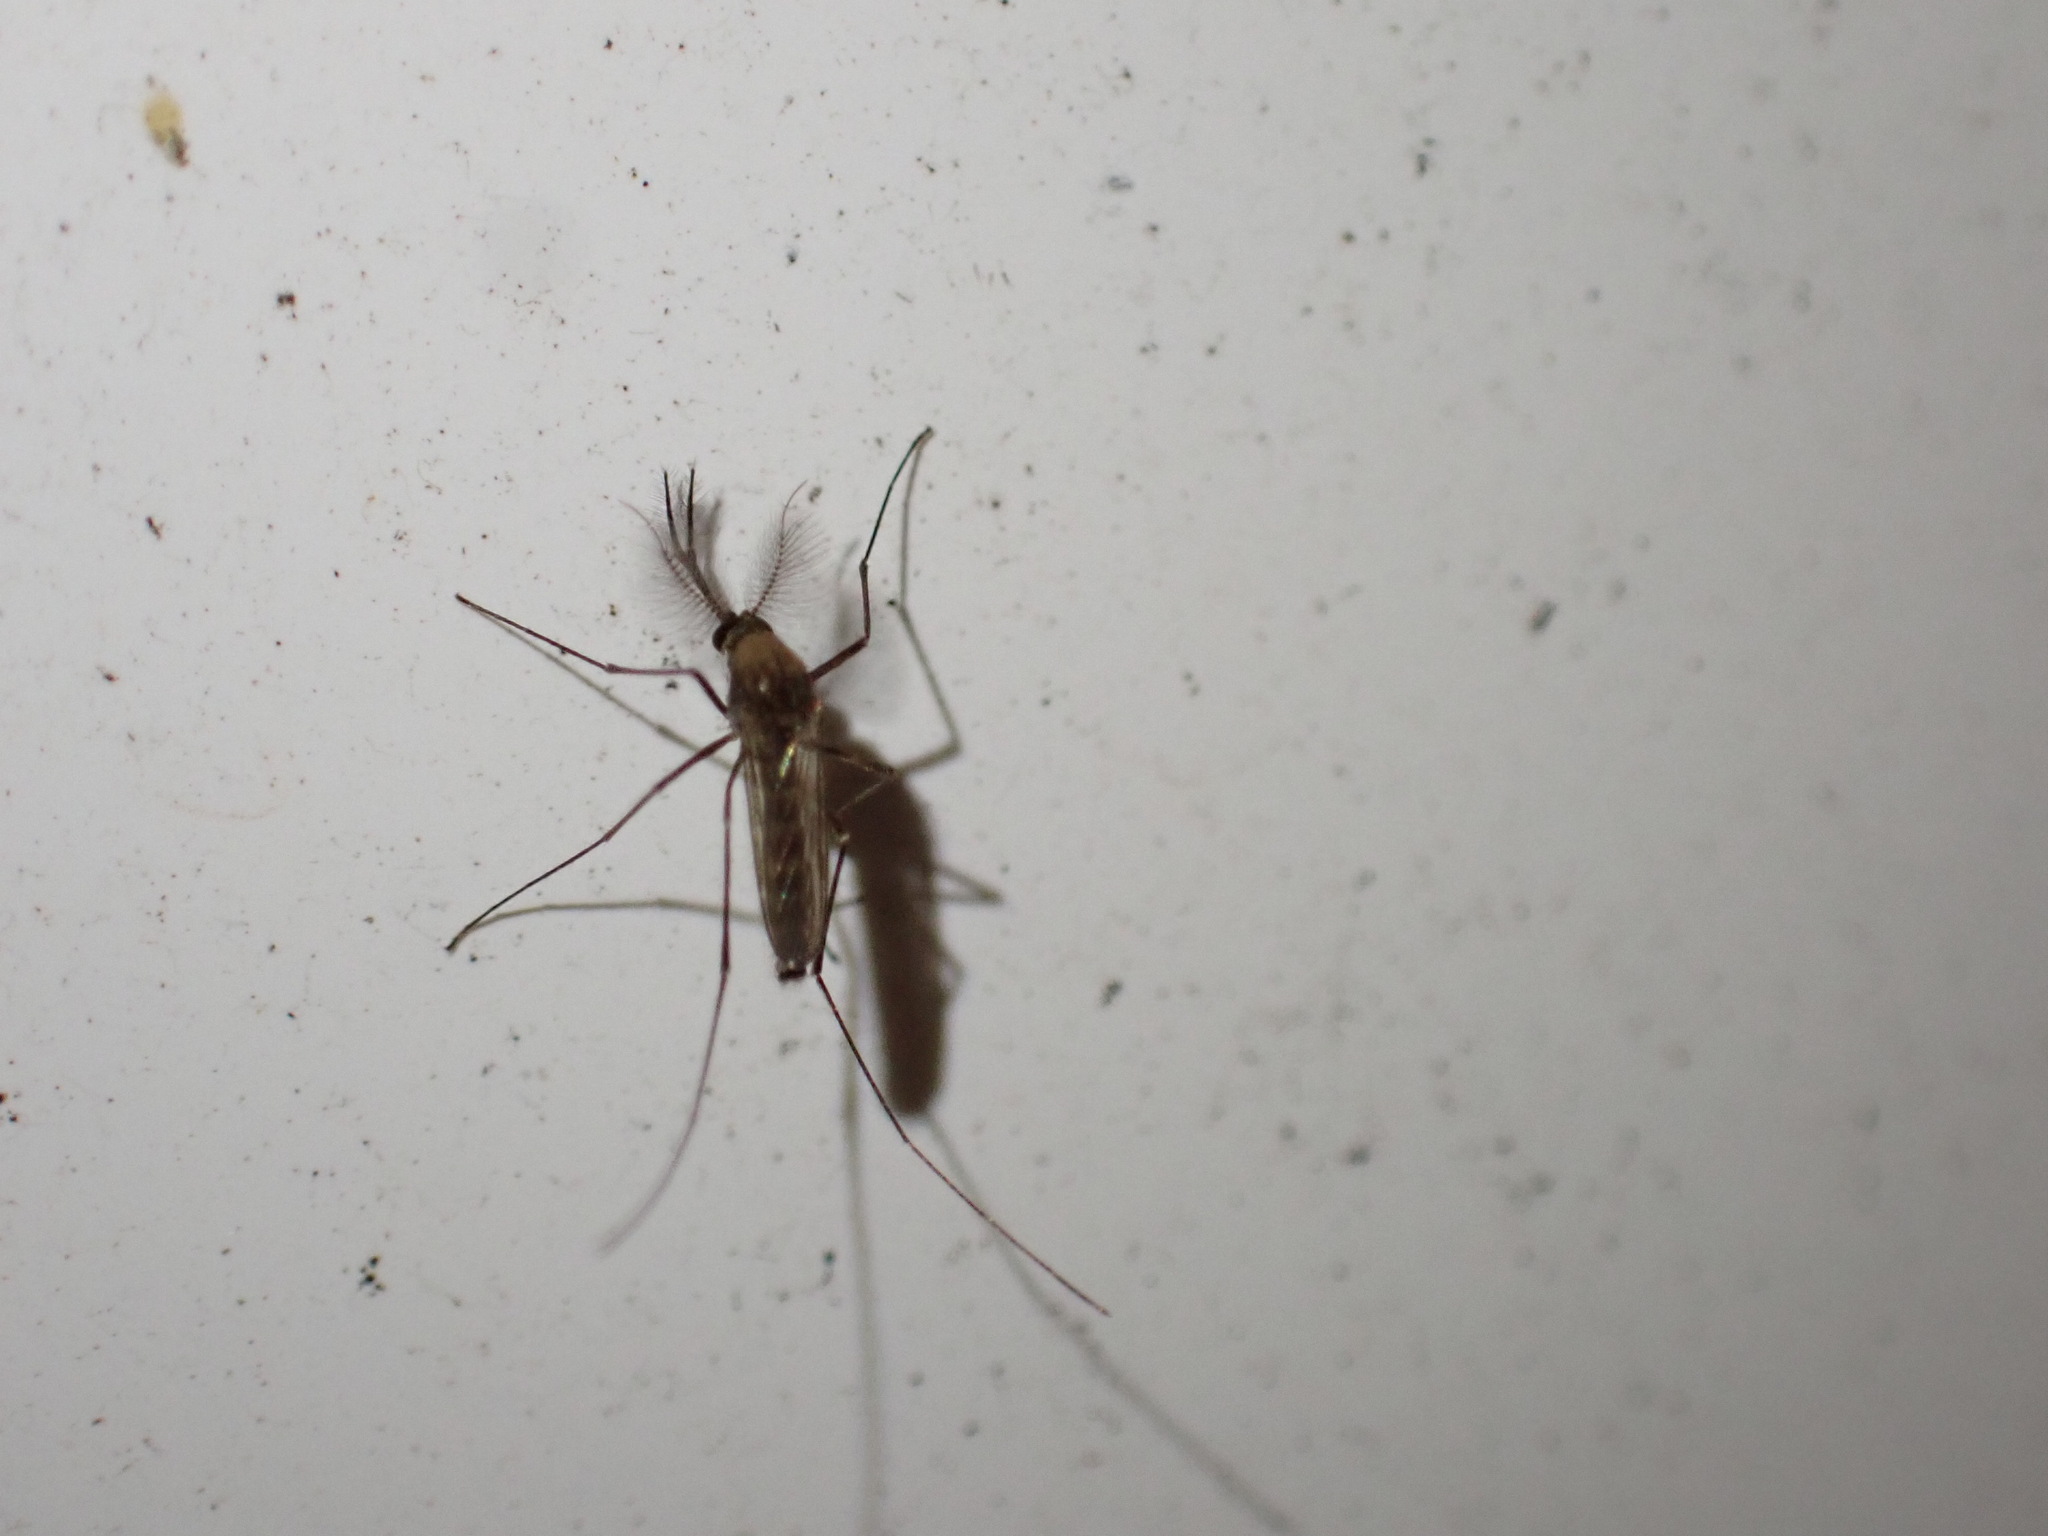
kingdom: Animalia
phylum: Arthropoda
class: Insecta
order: Diptera
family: Culicidae
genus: Culex
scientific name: Culex erraticus
